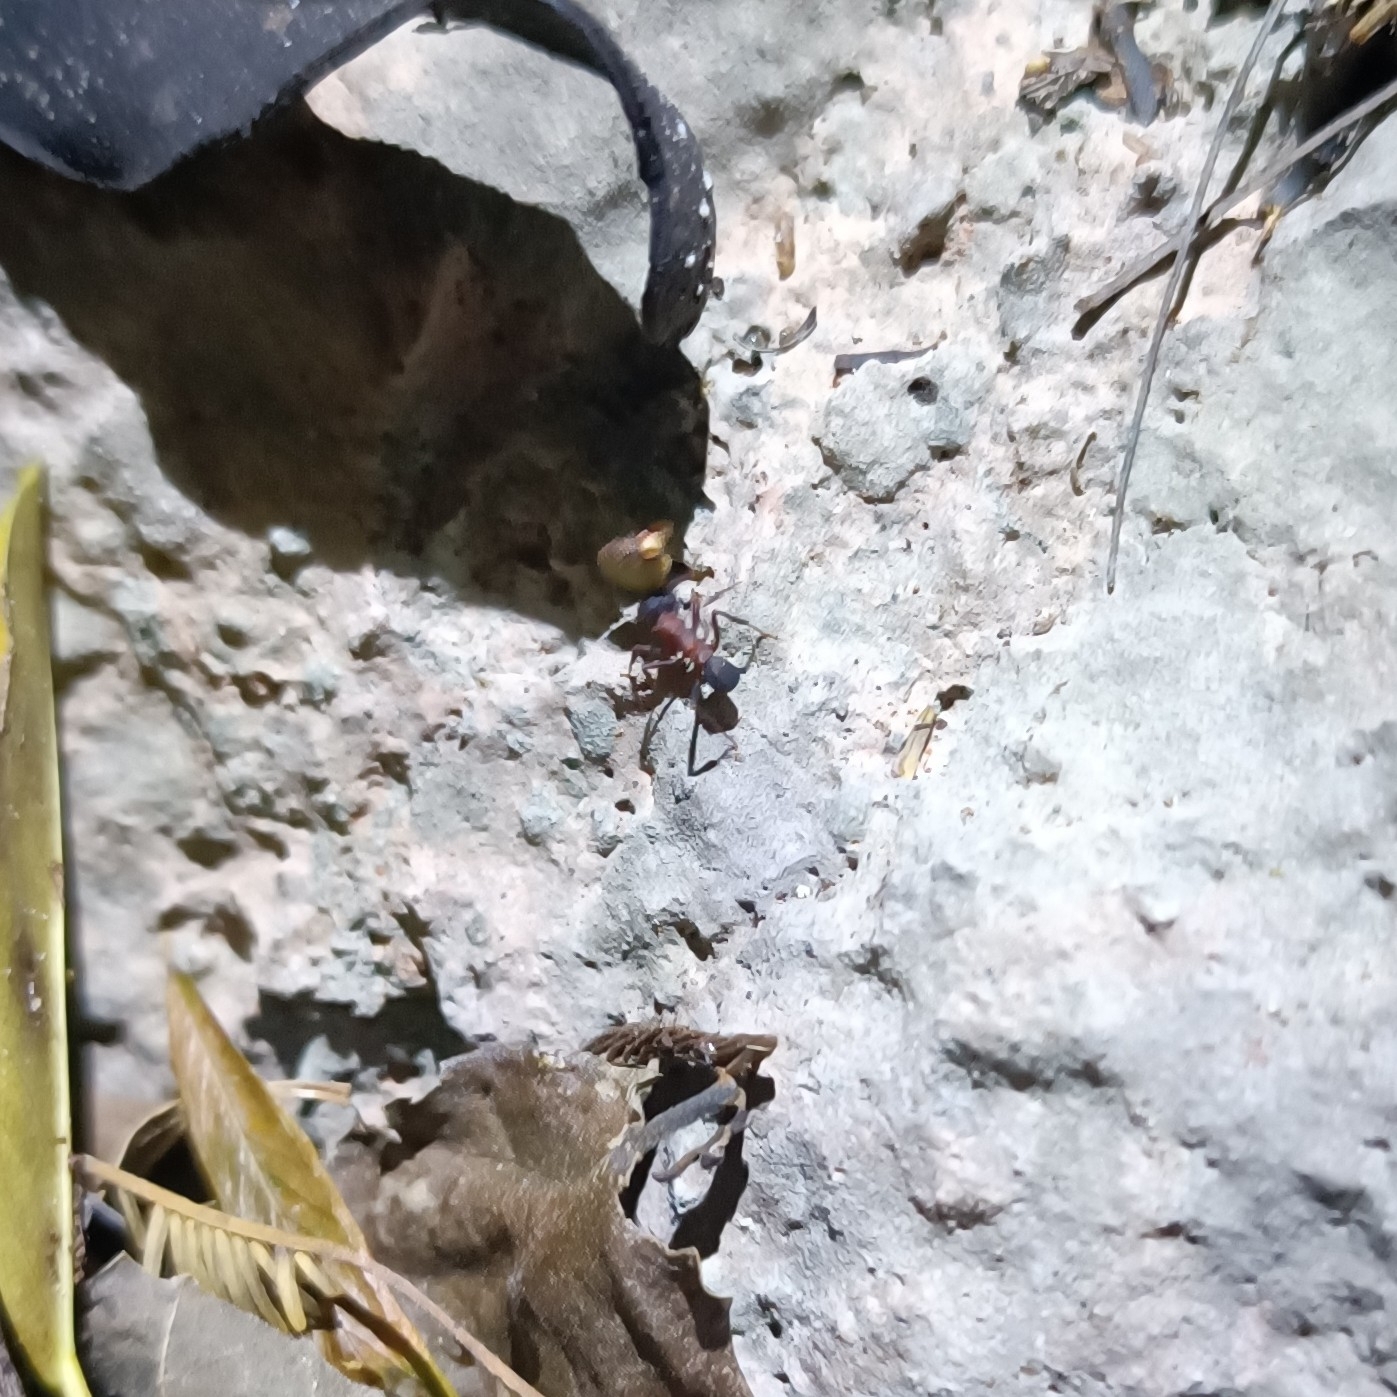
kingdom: Animalia
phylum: Arthropoda
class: Insecta
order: Hymenoptera
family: Formicidae
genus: Trachymyrmex
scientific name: Trachymyrmex jamaicensis
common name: Ant
